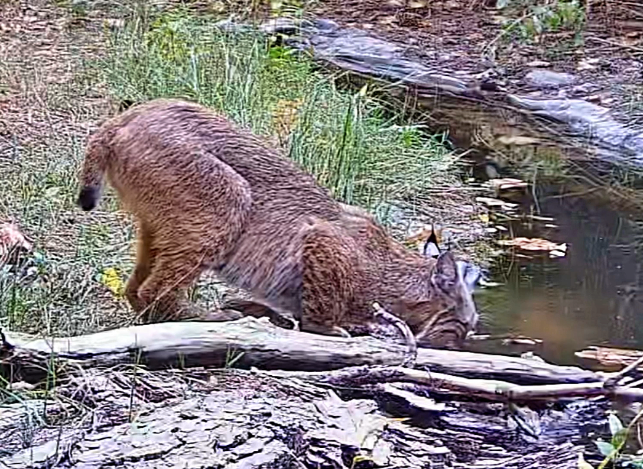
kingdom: Animalia
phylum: Chordata
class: Mammalia
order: Carnivora
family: Felidae
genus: Lynx
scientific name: Lynx rufus
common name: Bobcat
